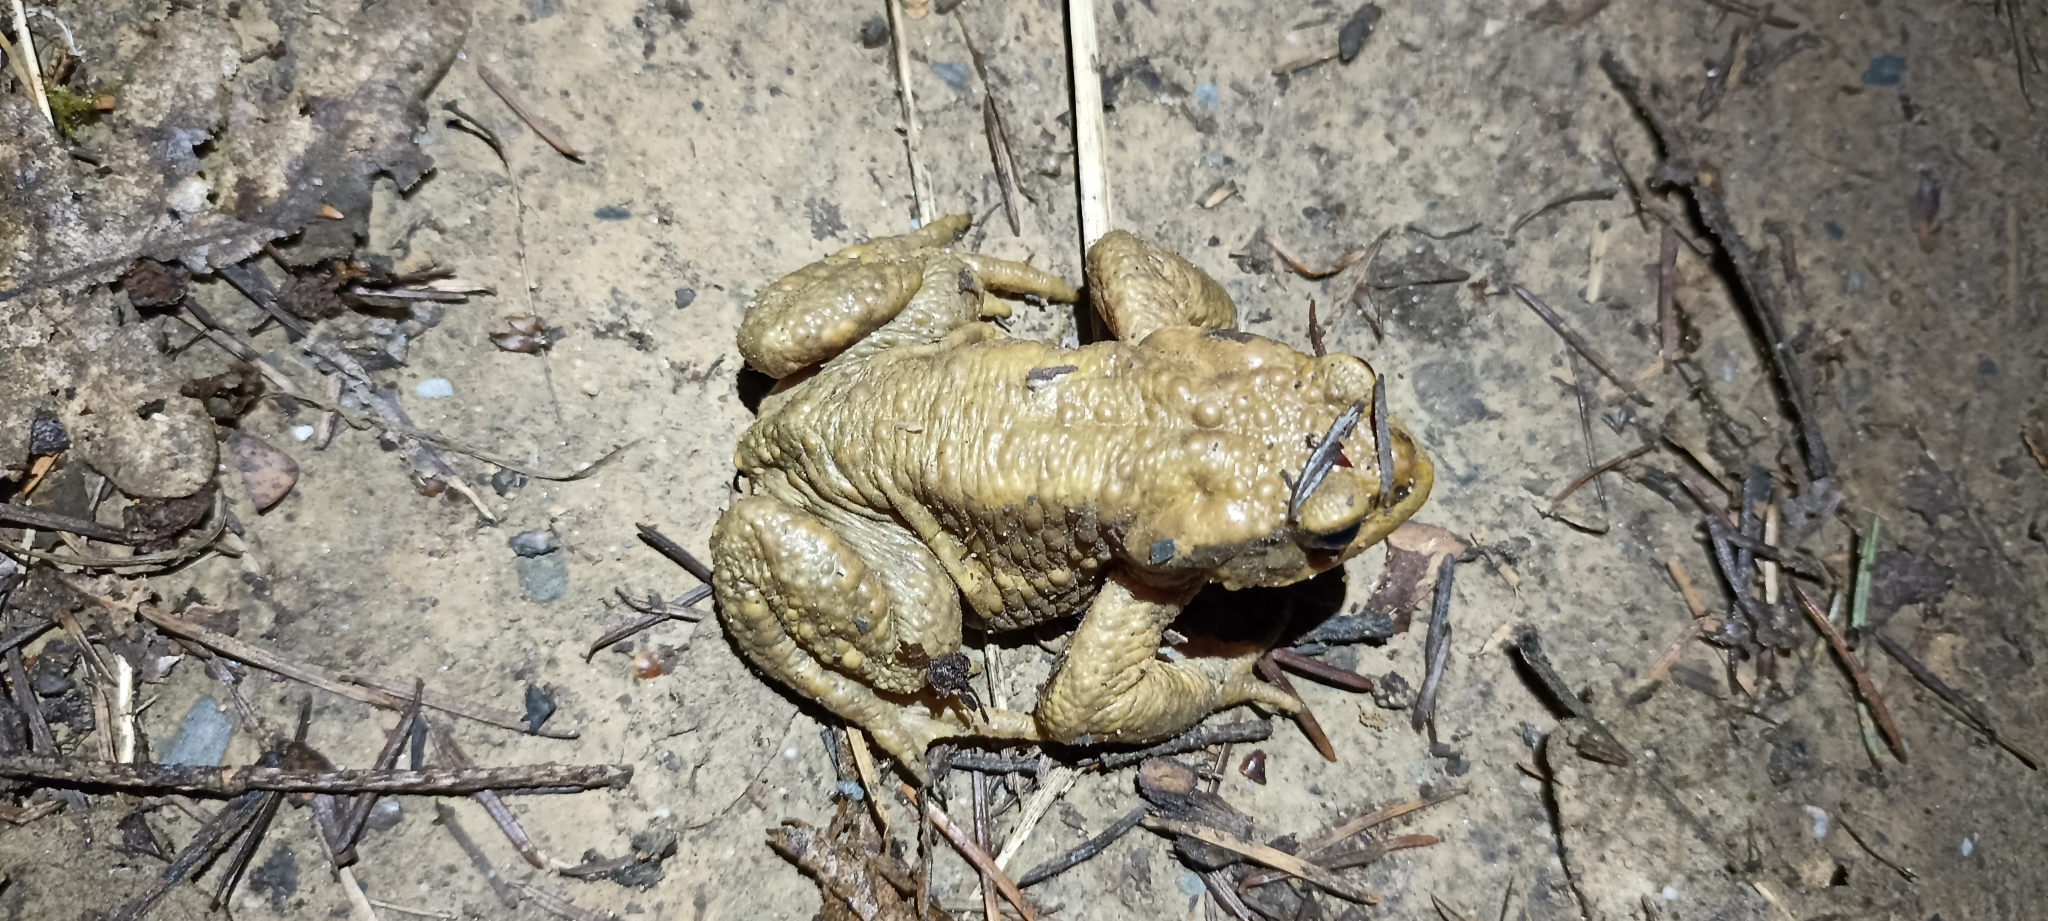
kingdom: Animalia
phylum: Chordata
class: Amphibia
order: Anura
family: Bufonidae
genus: Bufo
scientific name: Bufo spinosus
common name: Western common toad
